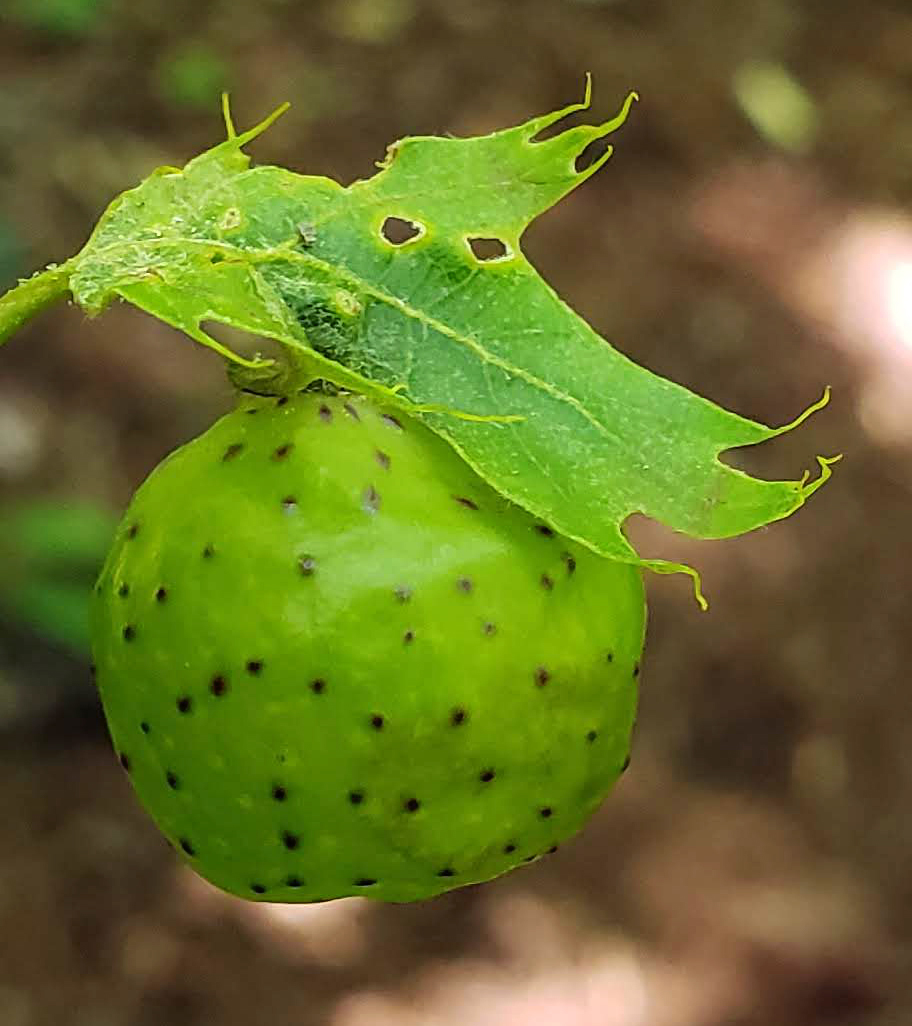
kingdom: Animalia
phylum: Arthropoda
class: Insecta
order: Hymenoptera
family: Cynipidae
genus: Amphibolips
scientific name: Amphibolips
